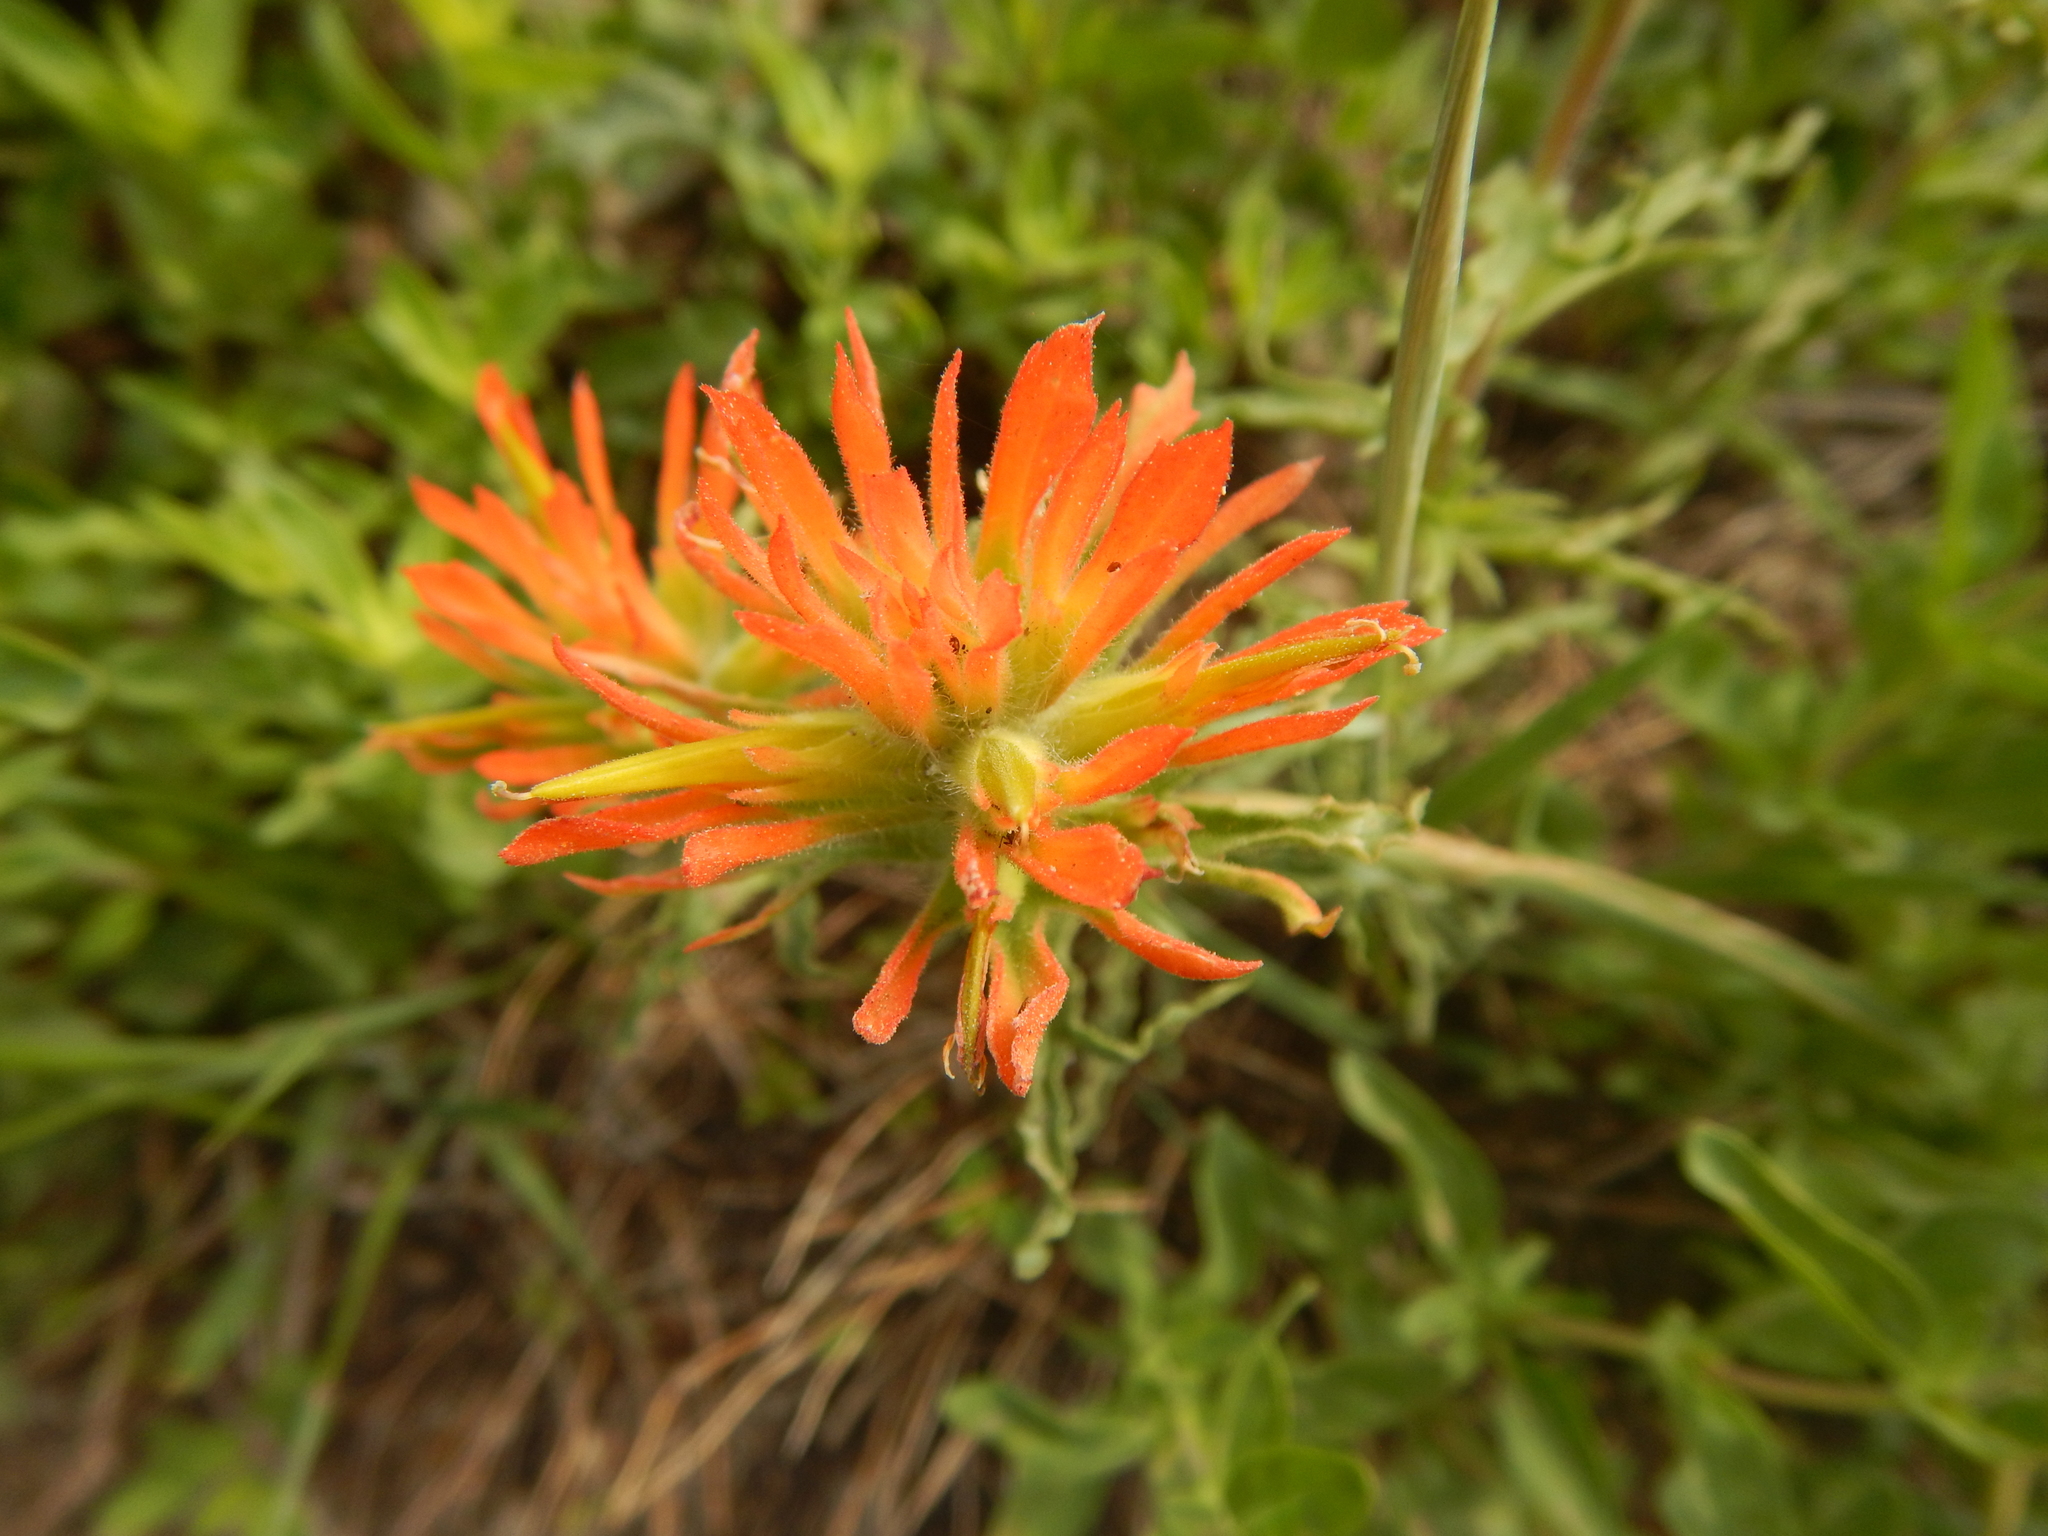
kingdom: Plantae
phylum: Tracheophyta
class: Magnoliopsida
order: Lamiales
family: Orobanchaceae
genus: Castilleja
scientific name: Castilleja applegatei
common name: Wavy-leaf paintbrush
